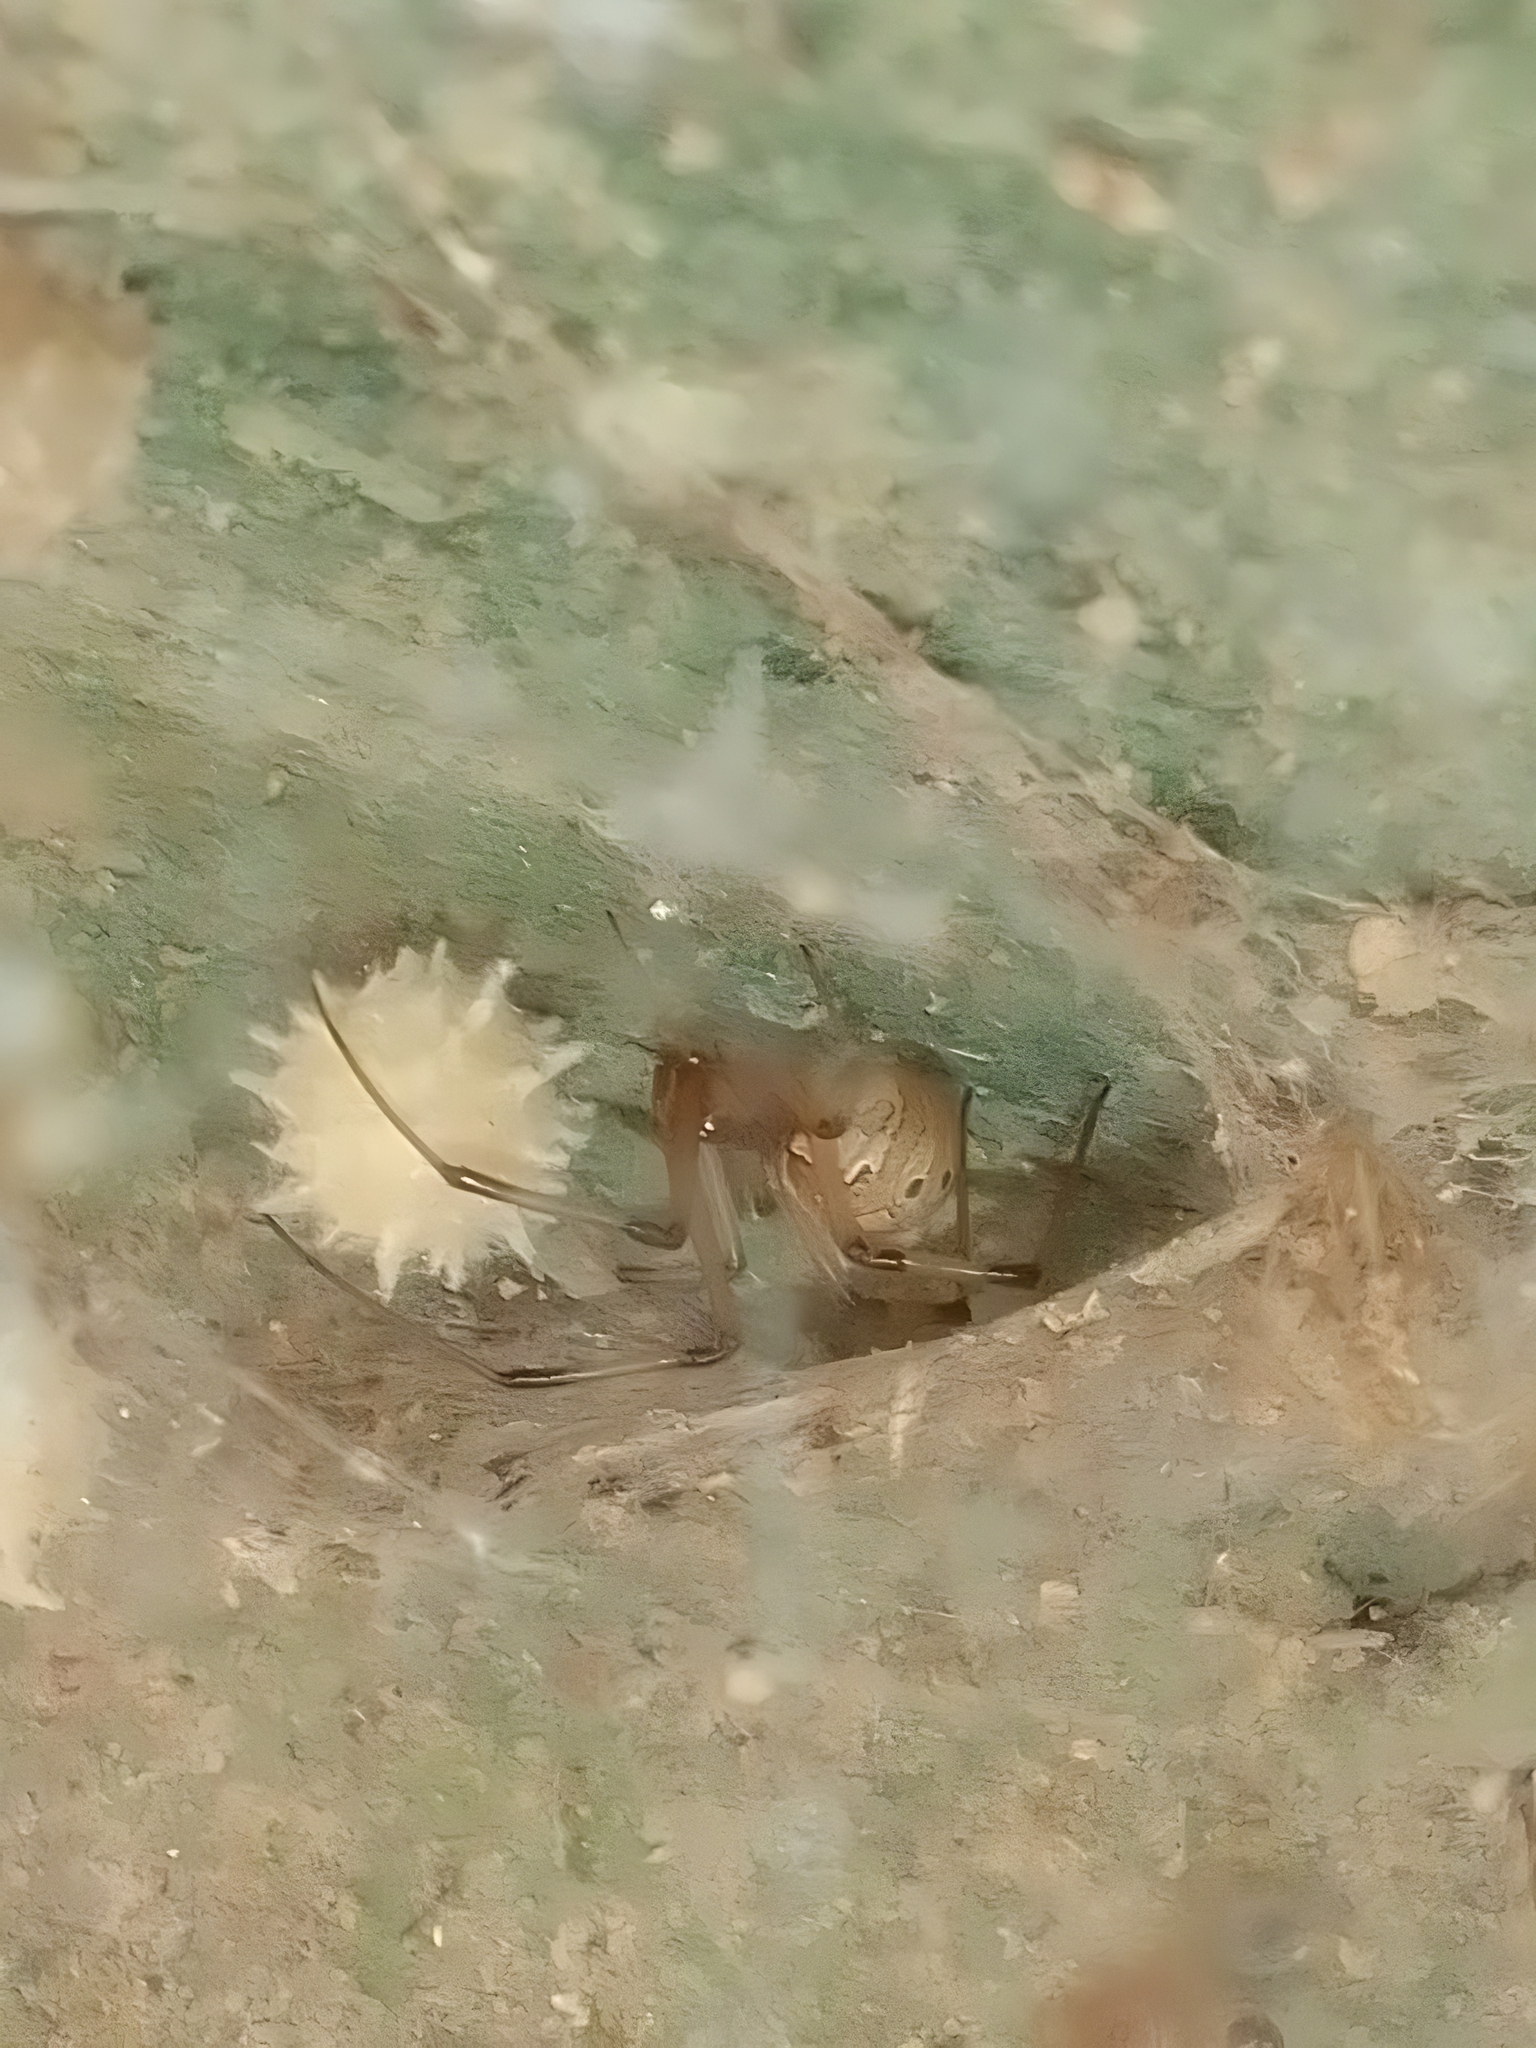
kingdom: Animalia
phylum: Arthropoda
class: Arachnida
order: Araneae
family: Theridiidae
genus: Latrodectus
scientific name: Latrodectus geometricus
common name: Brown widow spider
